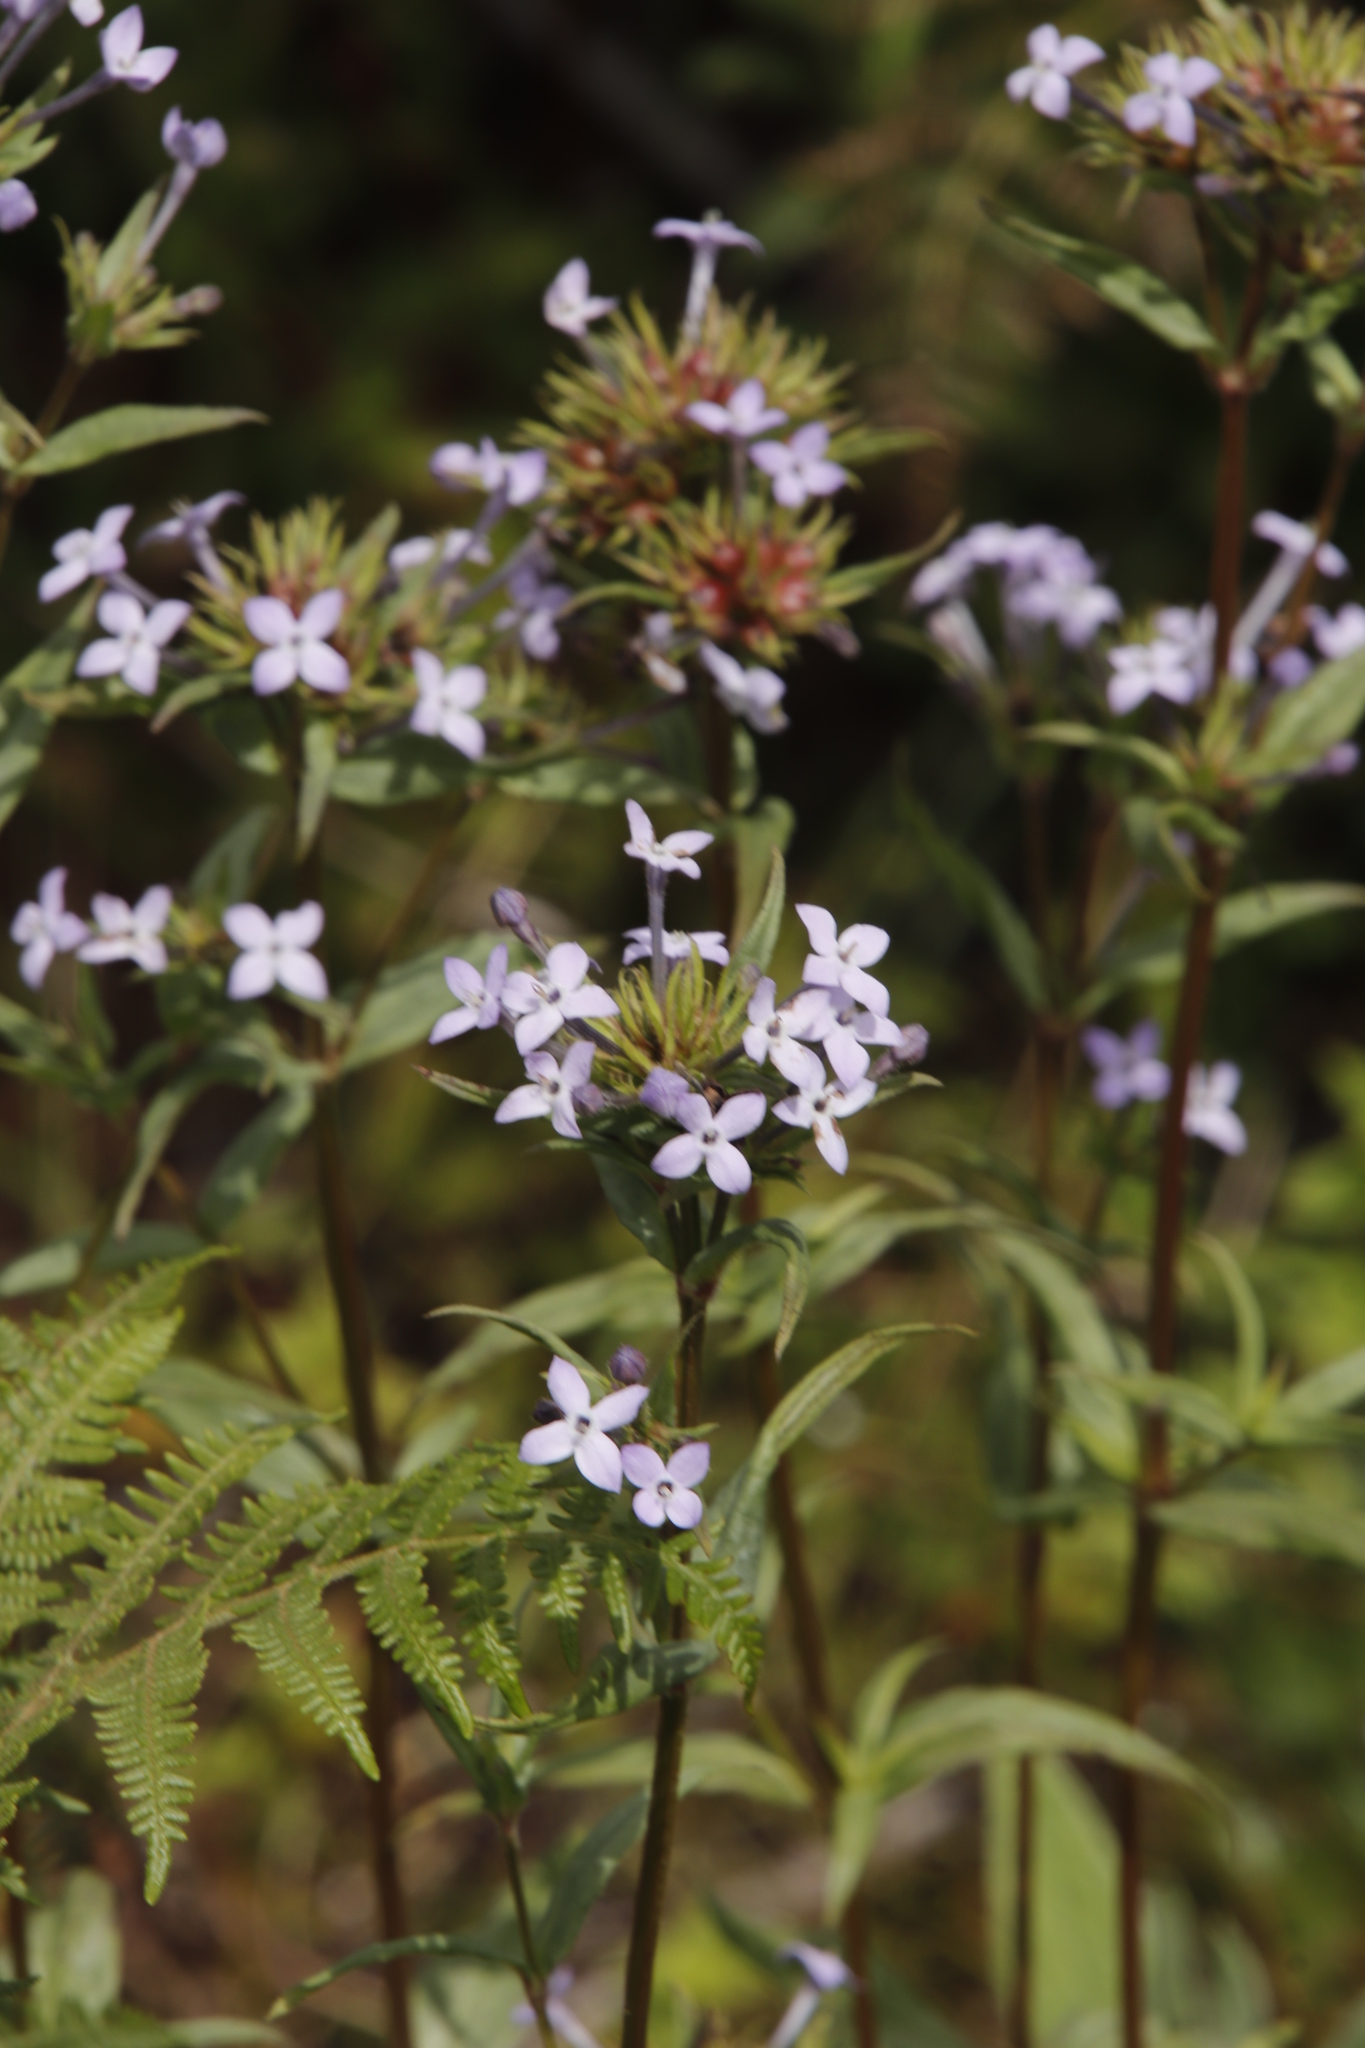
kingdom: Plantae
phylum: Tracheophyta
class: Magnoliopsida
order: Gentianales
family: Rubiaceae
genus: Conostomium
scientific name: Conostomium natalense
